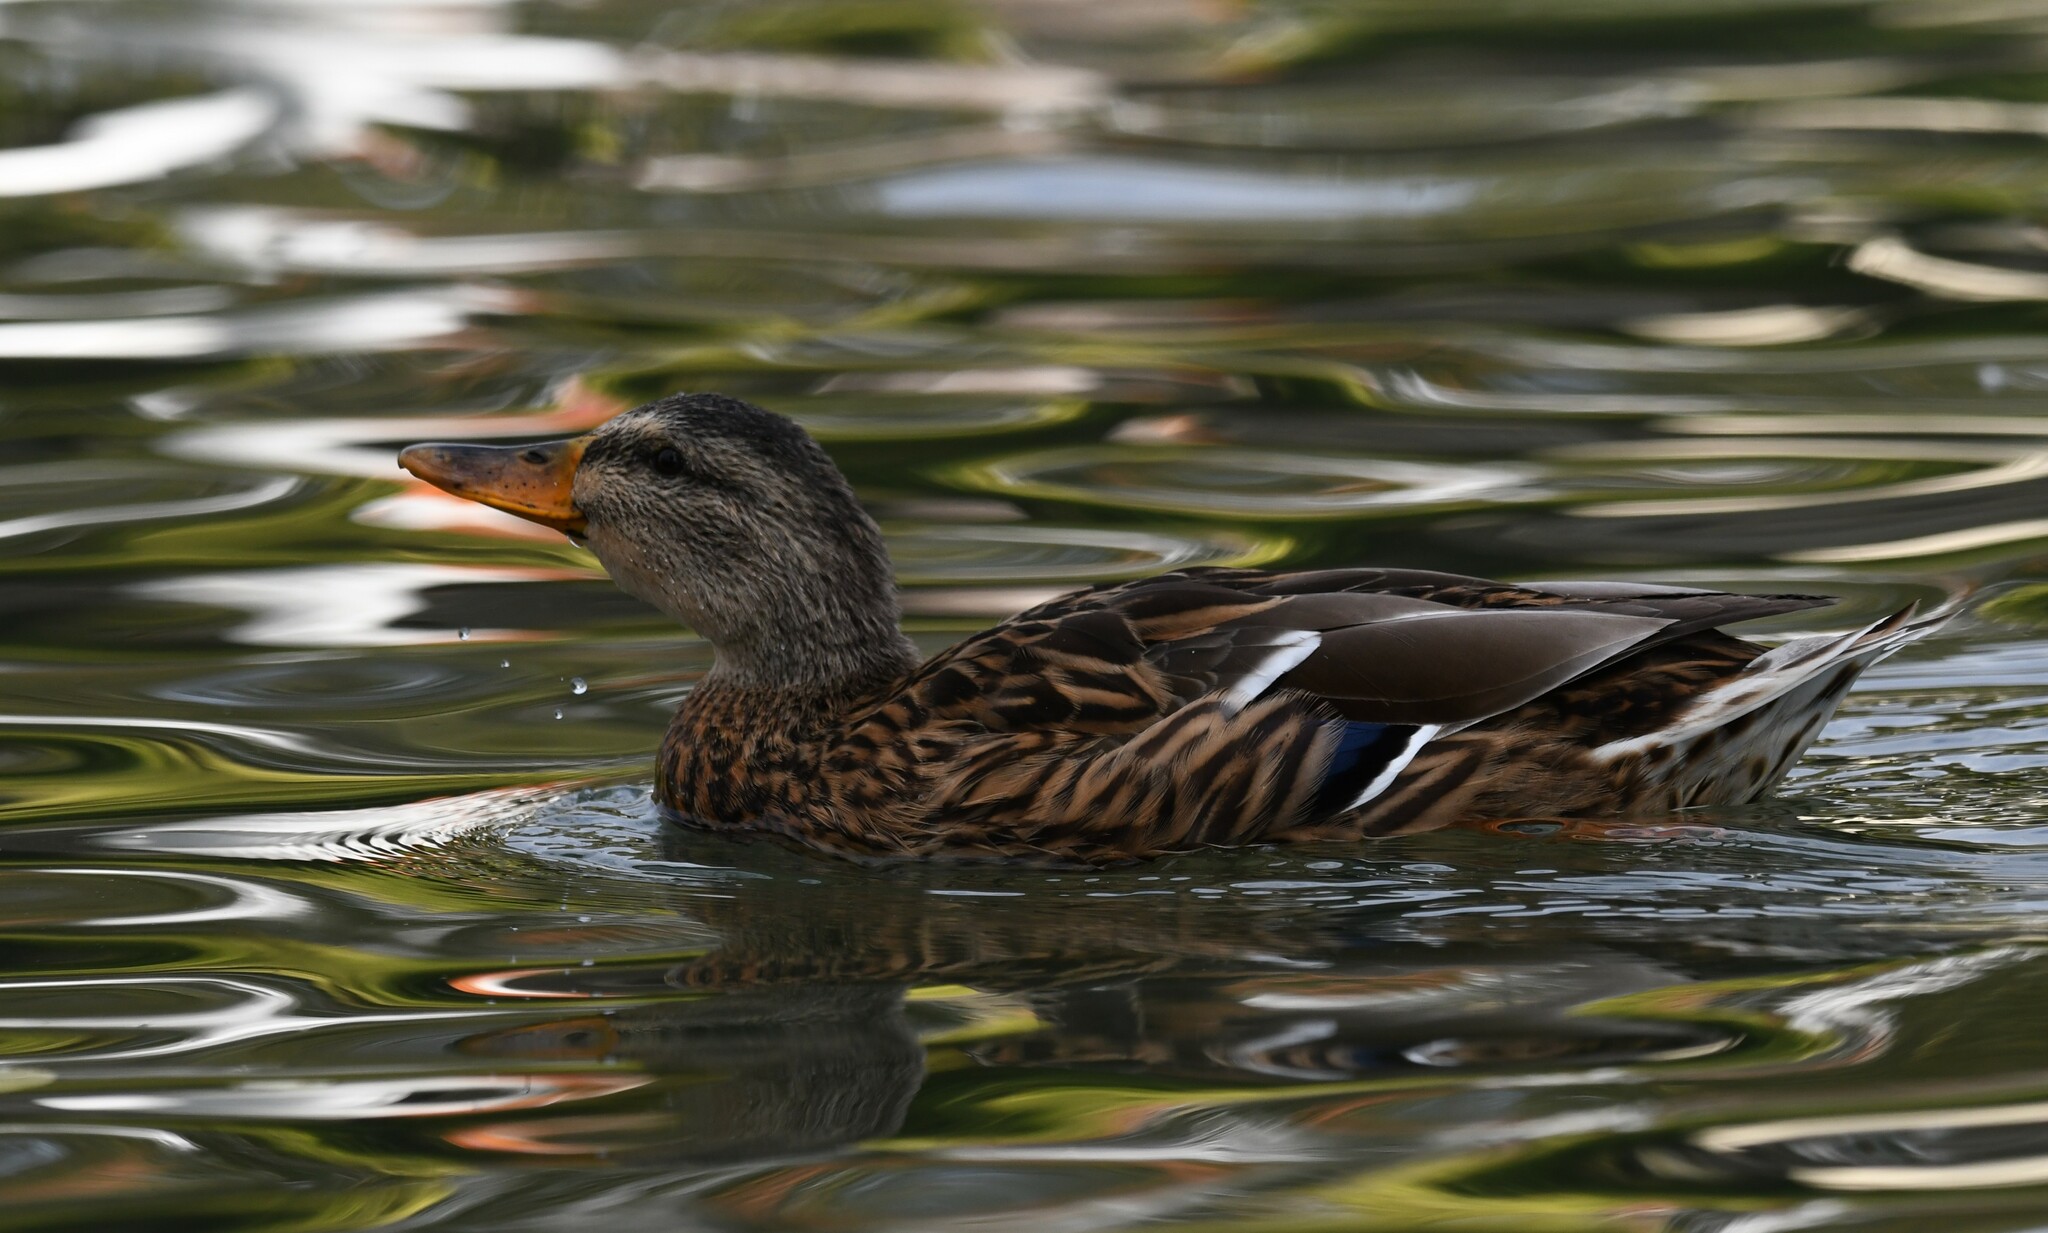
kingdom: Animalia
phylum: Chordata
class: Aves
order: Anseriformes
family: Anatidae
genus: Anas
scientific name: Anas platyrhynchos
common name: Mallard
